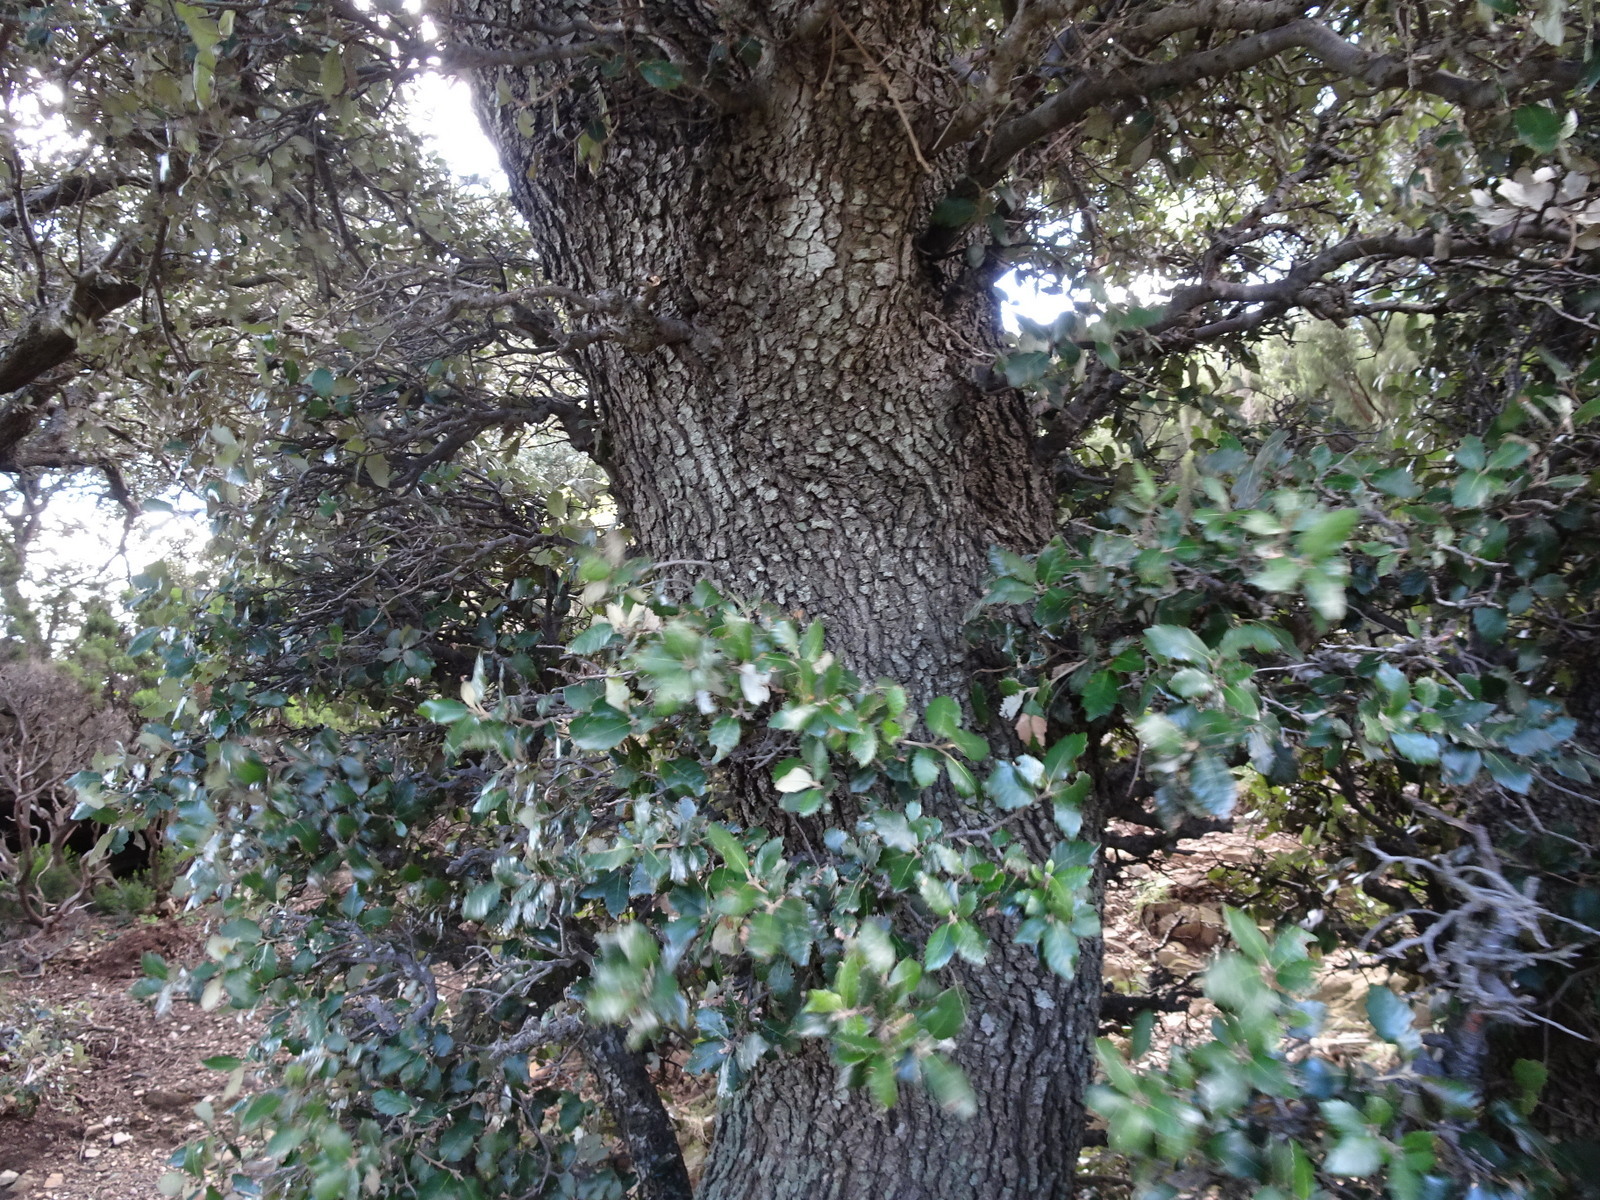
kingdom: Plantae
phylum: Tracheophyta
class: Magnoliopsida
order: Fagales
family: Fagaceae
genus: Quercus
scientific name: Quercus ilex
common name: Evergreen oak
